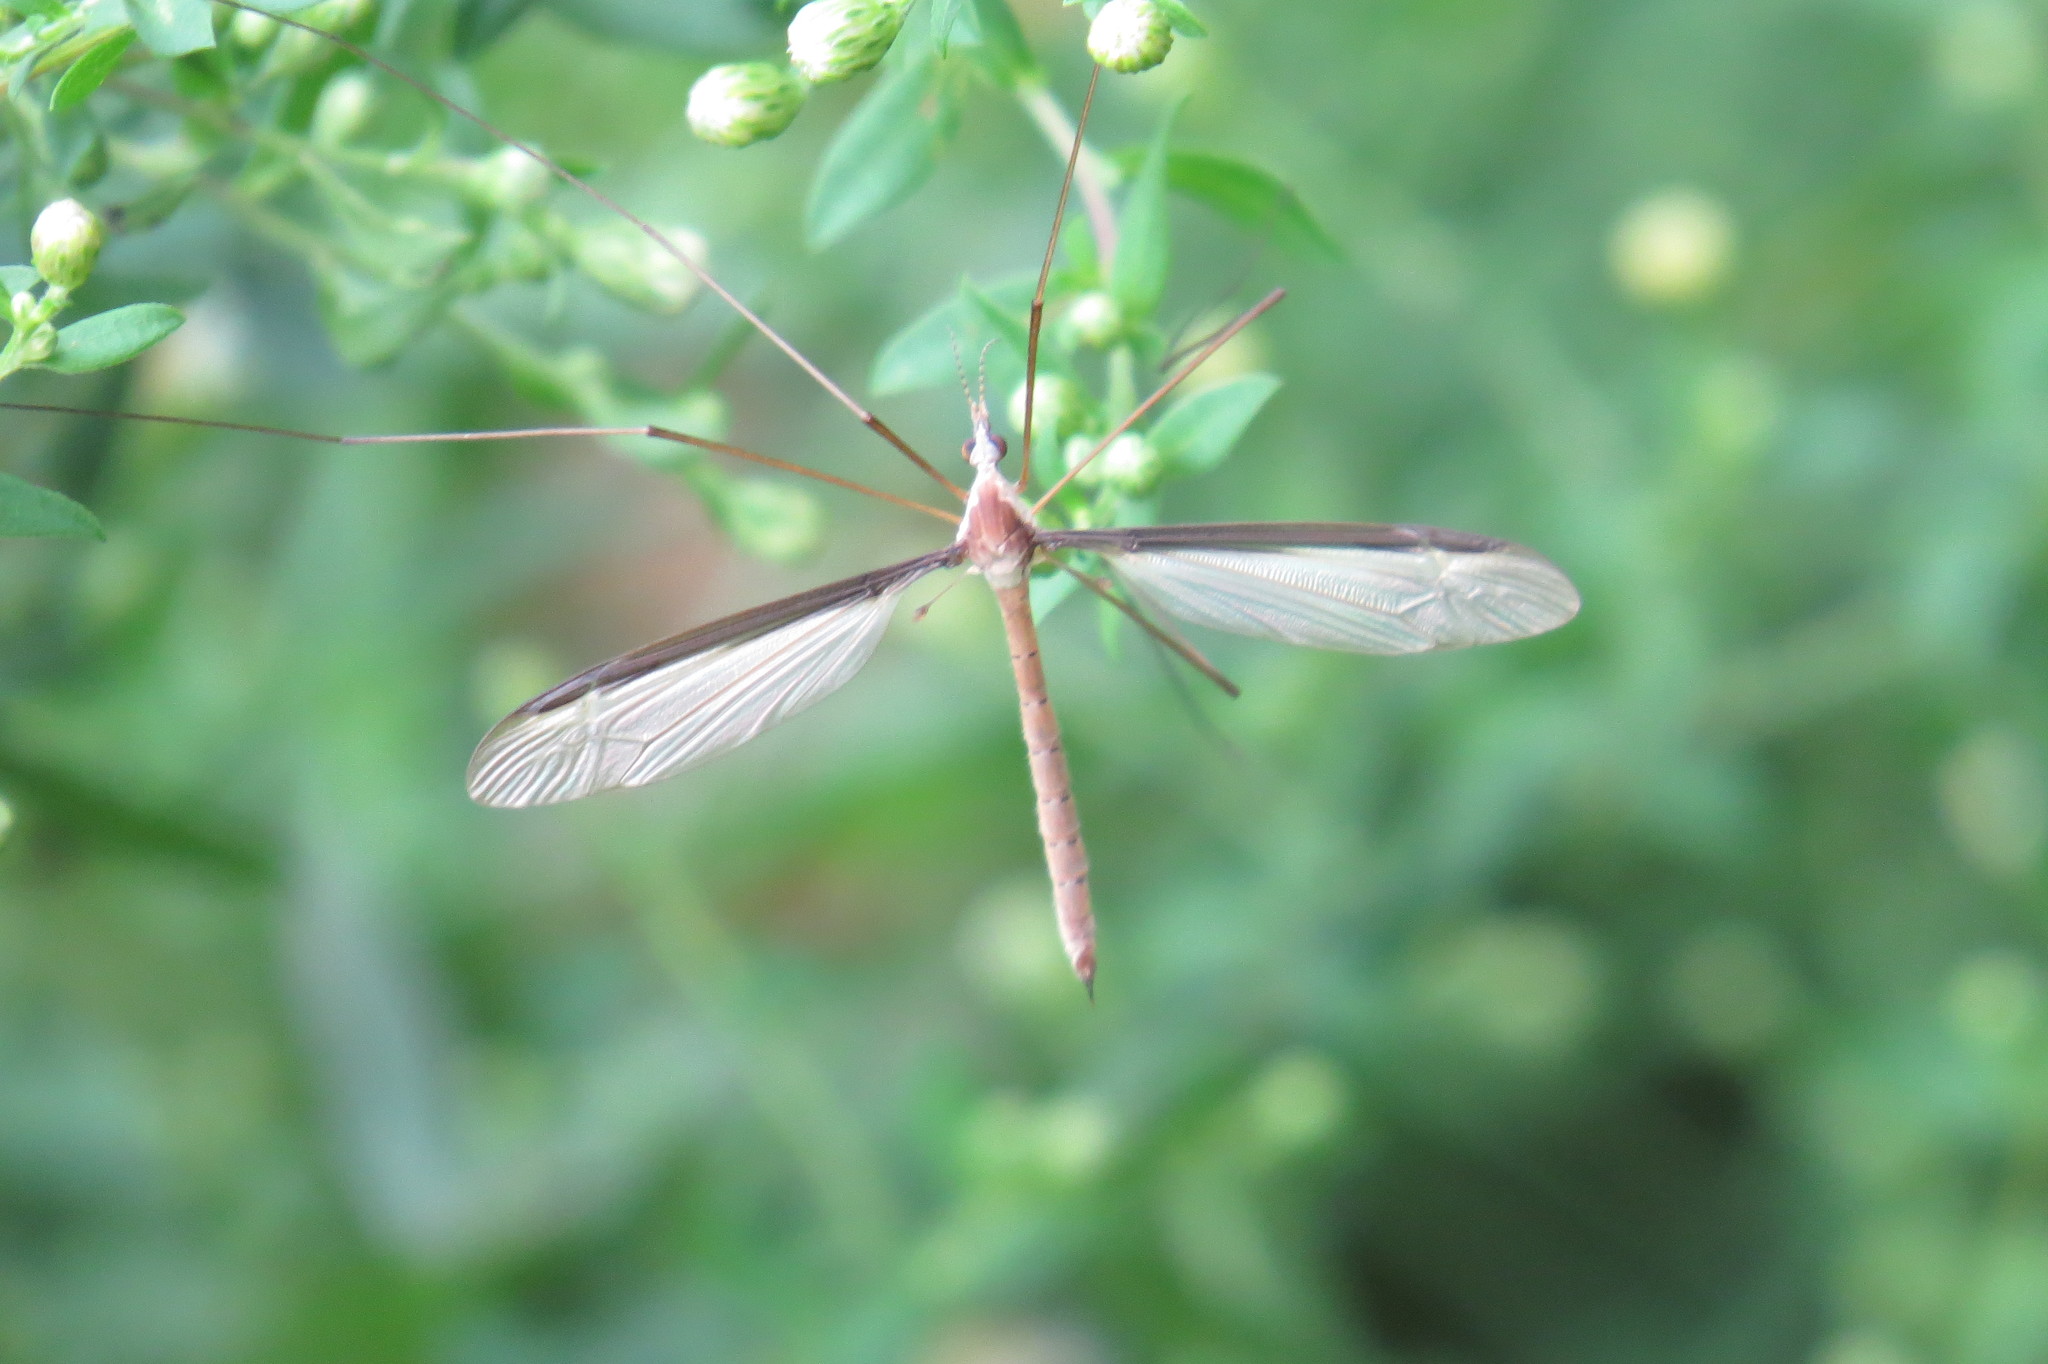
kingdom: Animalia
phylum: Arthropoda
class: Insecta
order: Diptera
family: Tipulidae
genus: Tipula
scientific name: Tipula sayi
